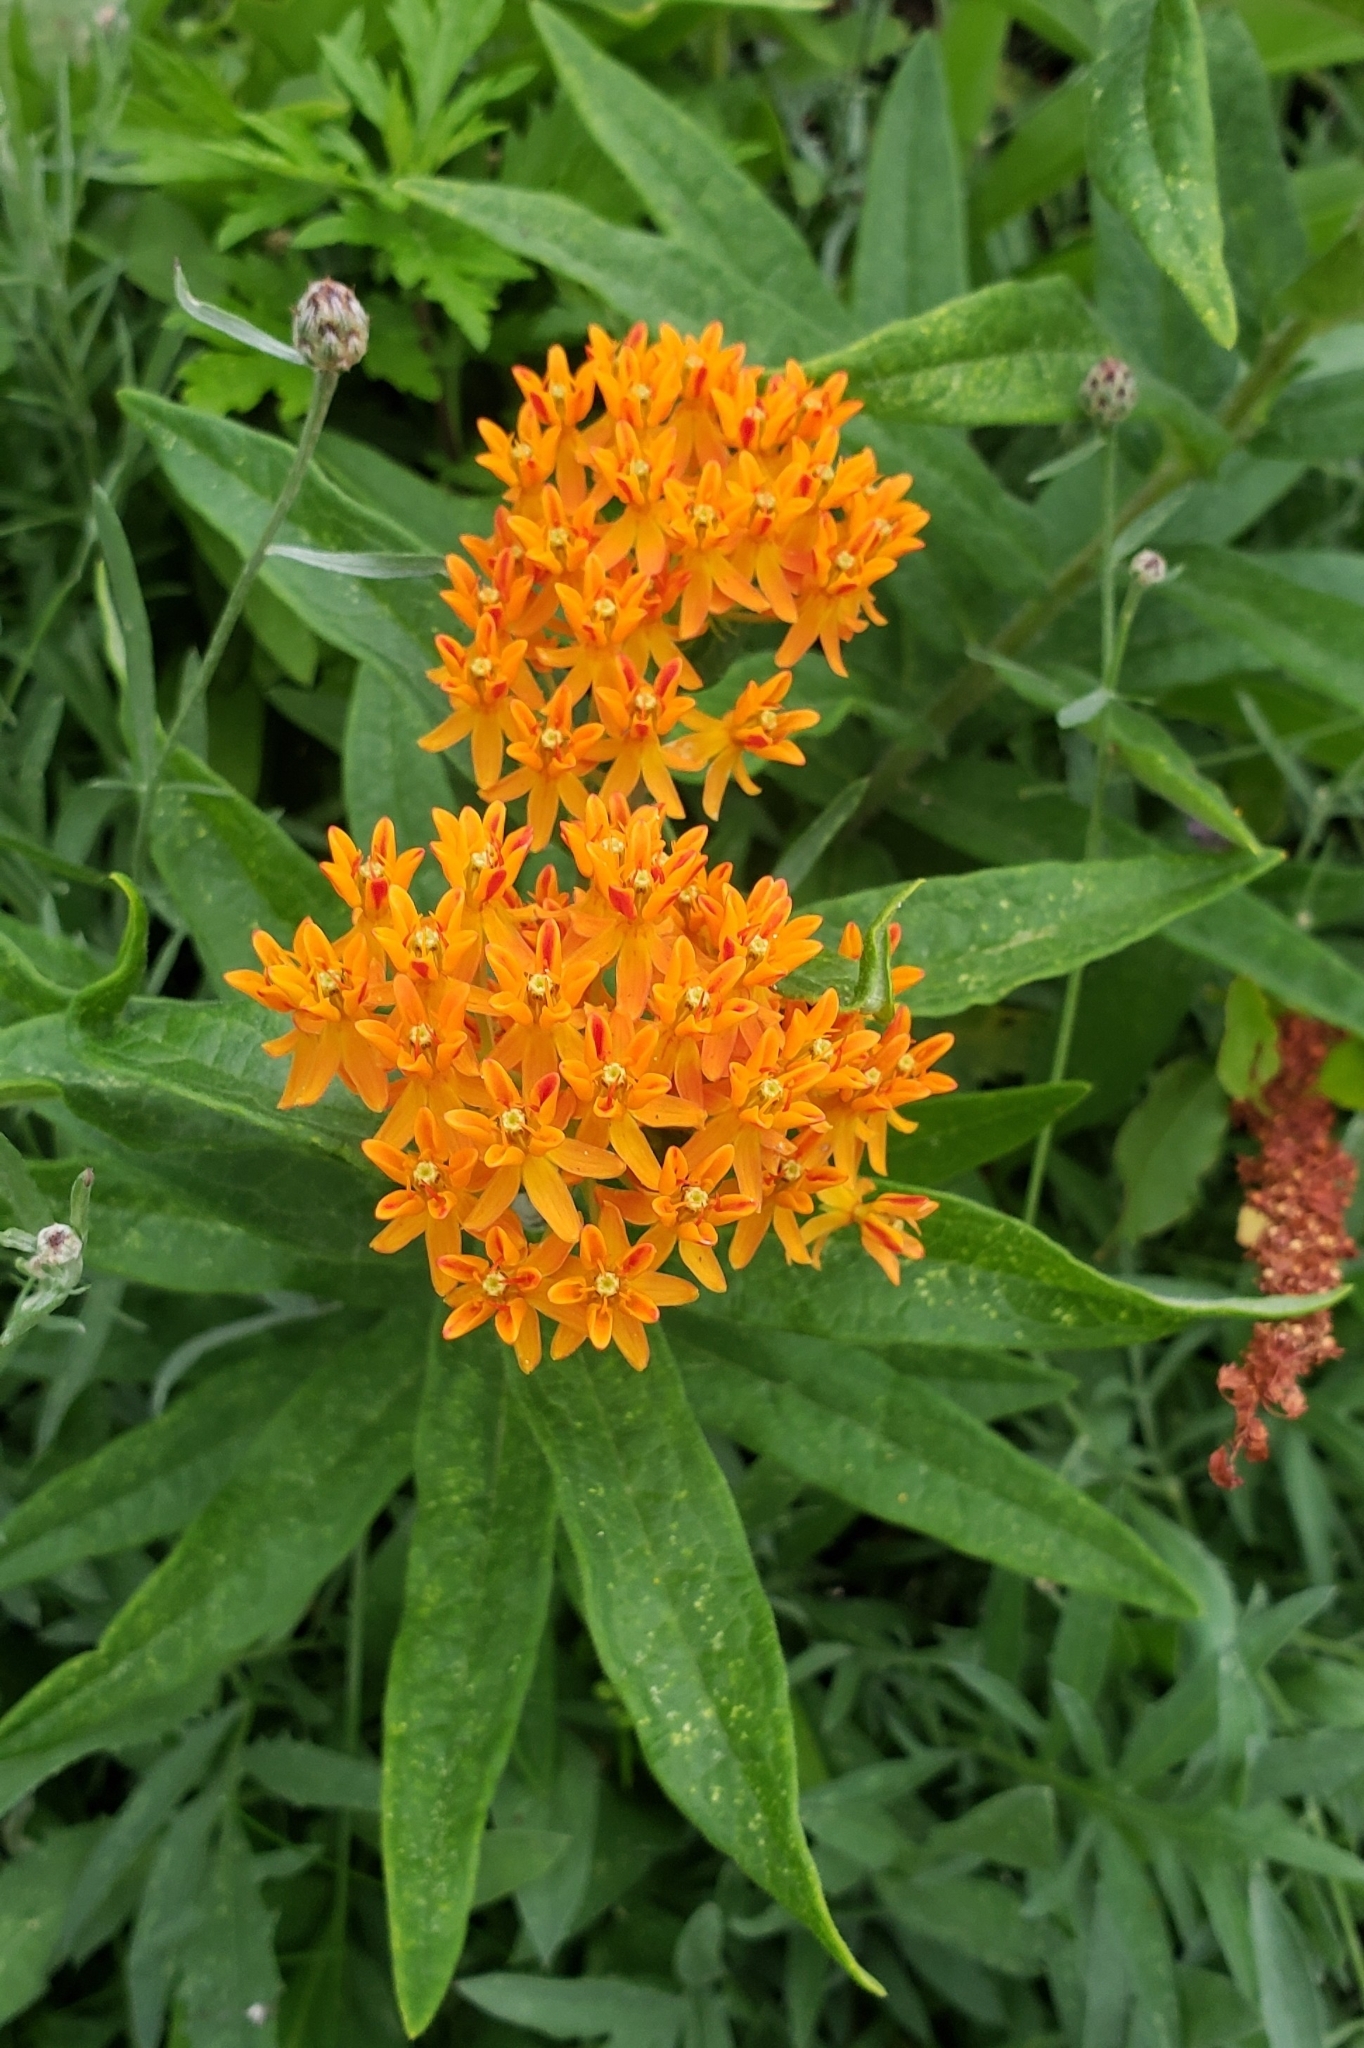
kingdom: Plantae
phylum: Tracheophyta
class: Magnoliopsida
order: Gentianales
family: Apocynaceae
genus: Asclepias
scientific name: Asclepias tuberosa
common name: Butterfly milkweed
